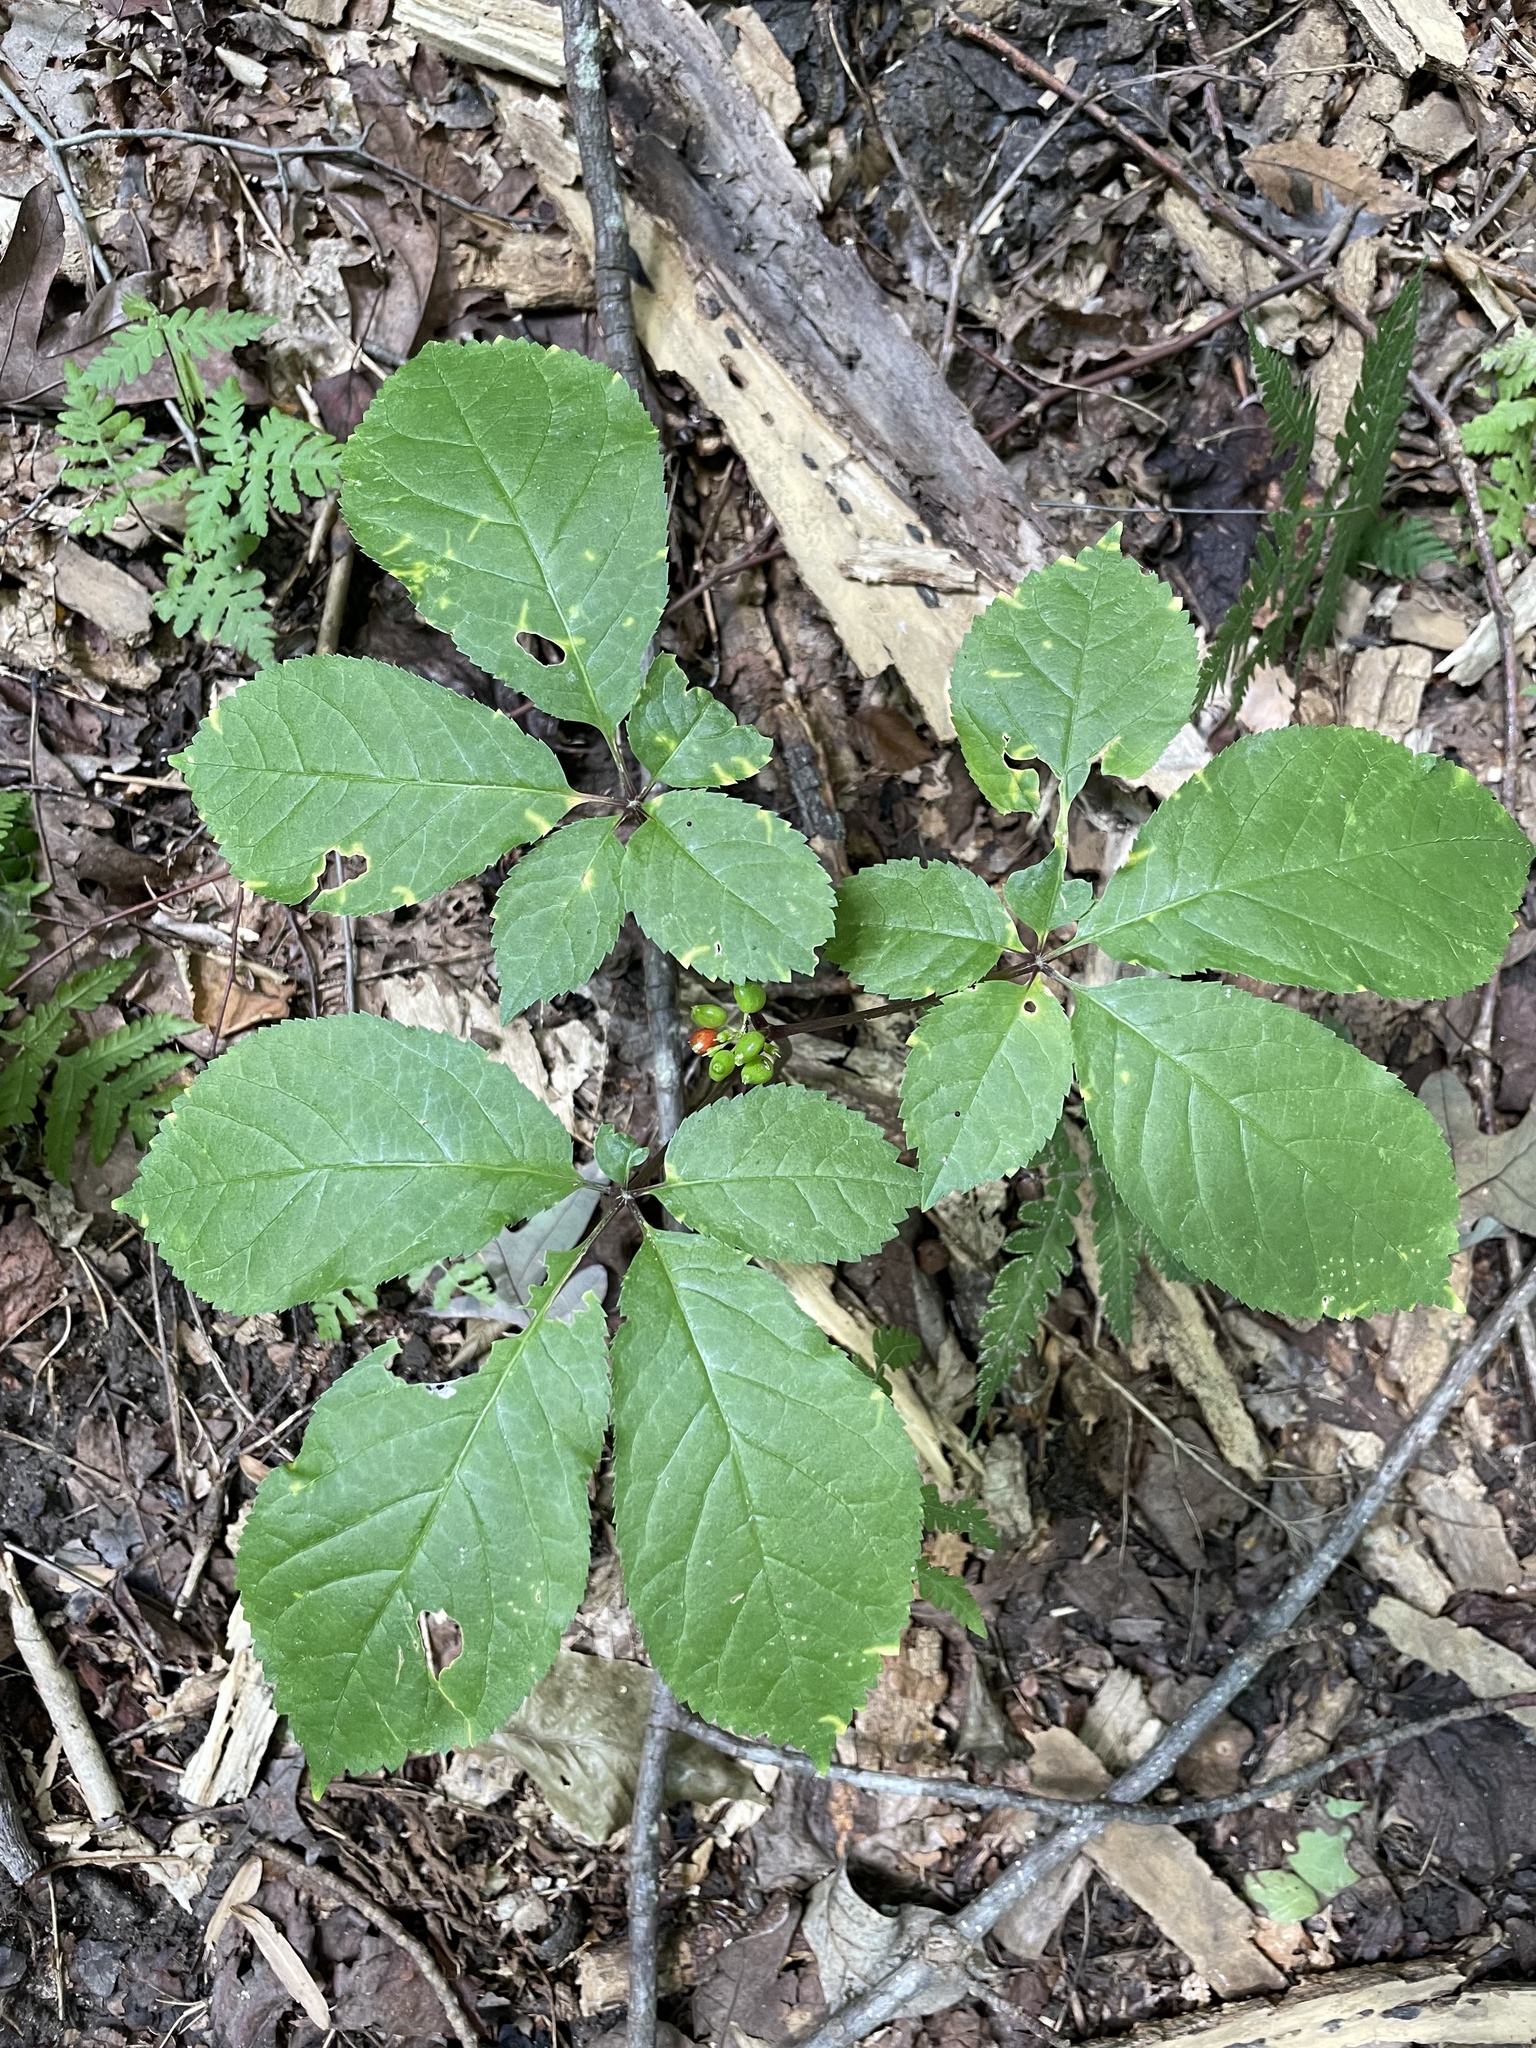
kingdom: Plantae
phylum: Tracheophyta
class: Magnoliopsida
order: Apiales
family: Araliaceae
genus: Panax
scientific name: Panax quinquefolius
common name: American ginseng
